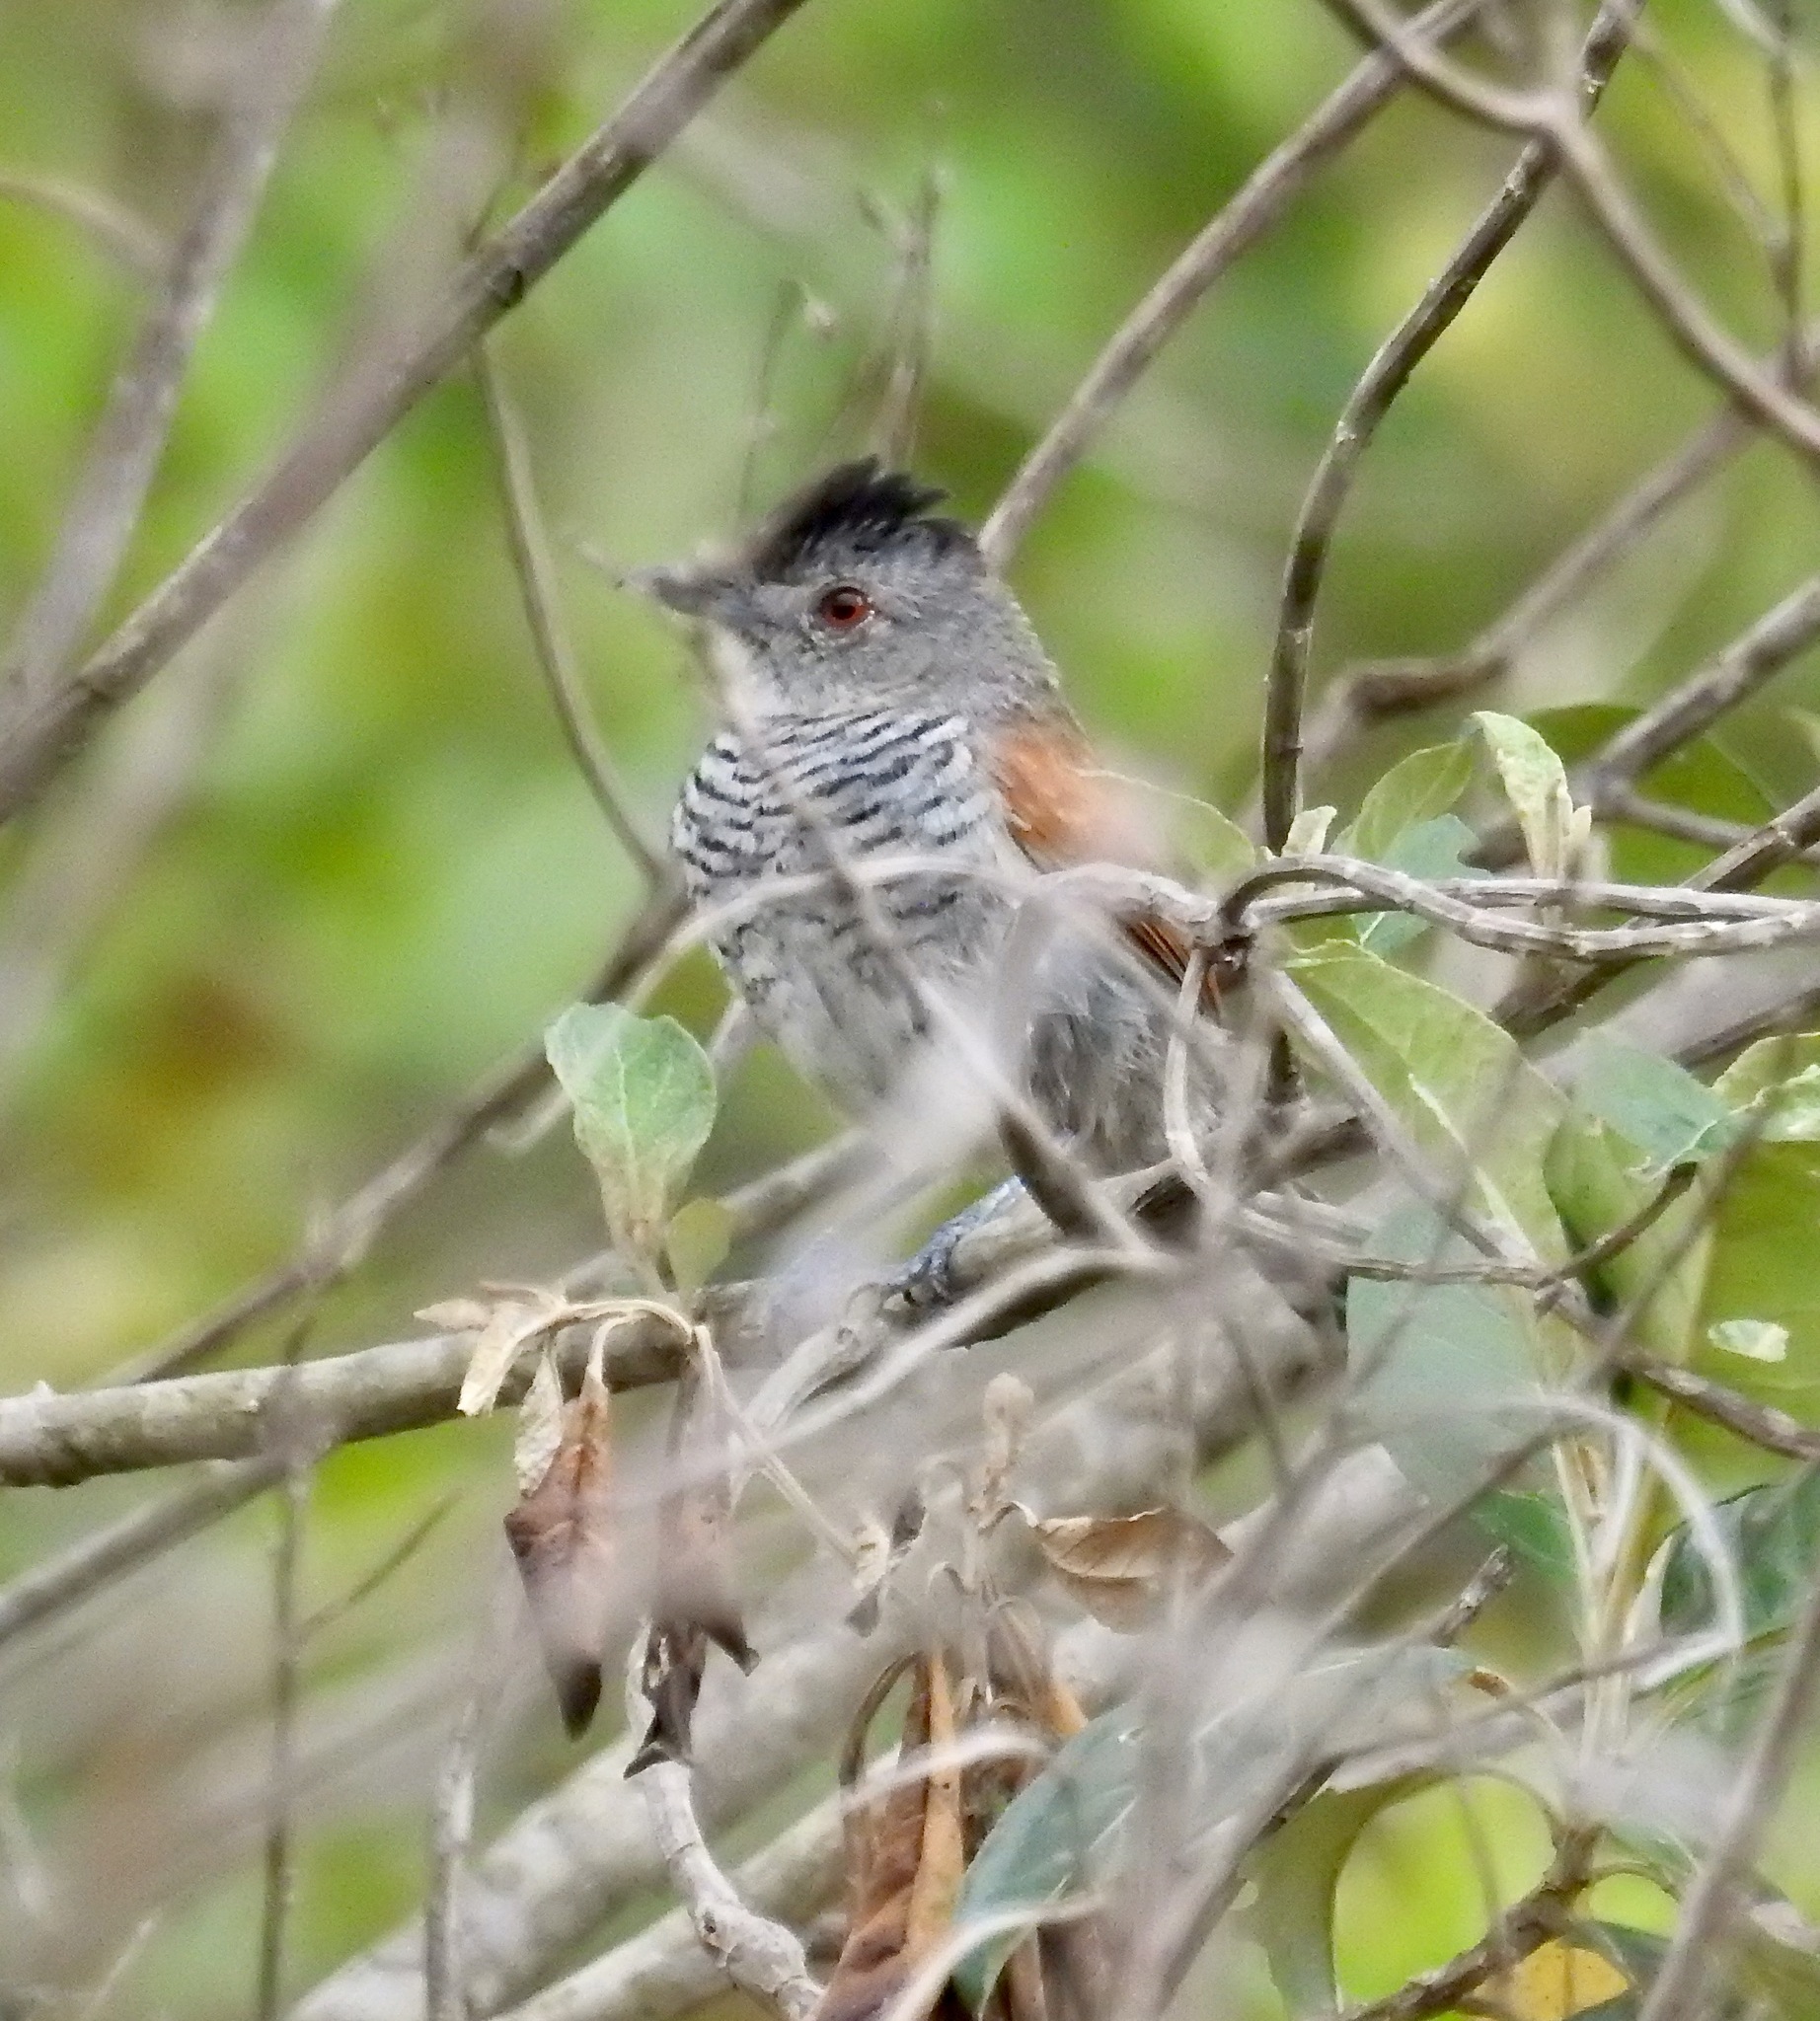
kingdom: Animalia
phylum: Chordata
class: Aves
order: Passeriformes
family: Thamnophilidae
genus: Thamnophilus
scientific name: Thamnophilus torquatus
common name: Rufous-winged antshrike
